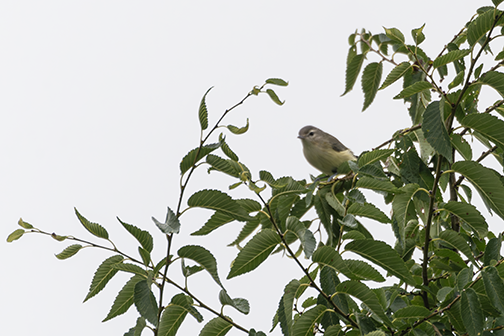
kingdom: Animalia
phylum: Chordata
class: Aves
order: Passeriformes
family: Vireonidae
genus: Vireo
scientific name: Vireo gilvus
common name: Warbling vireo
